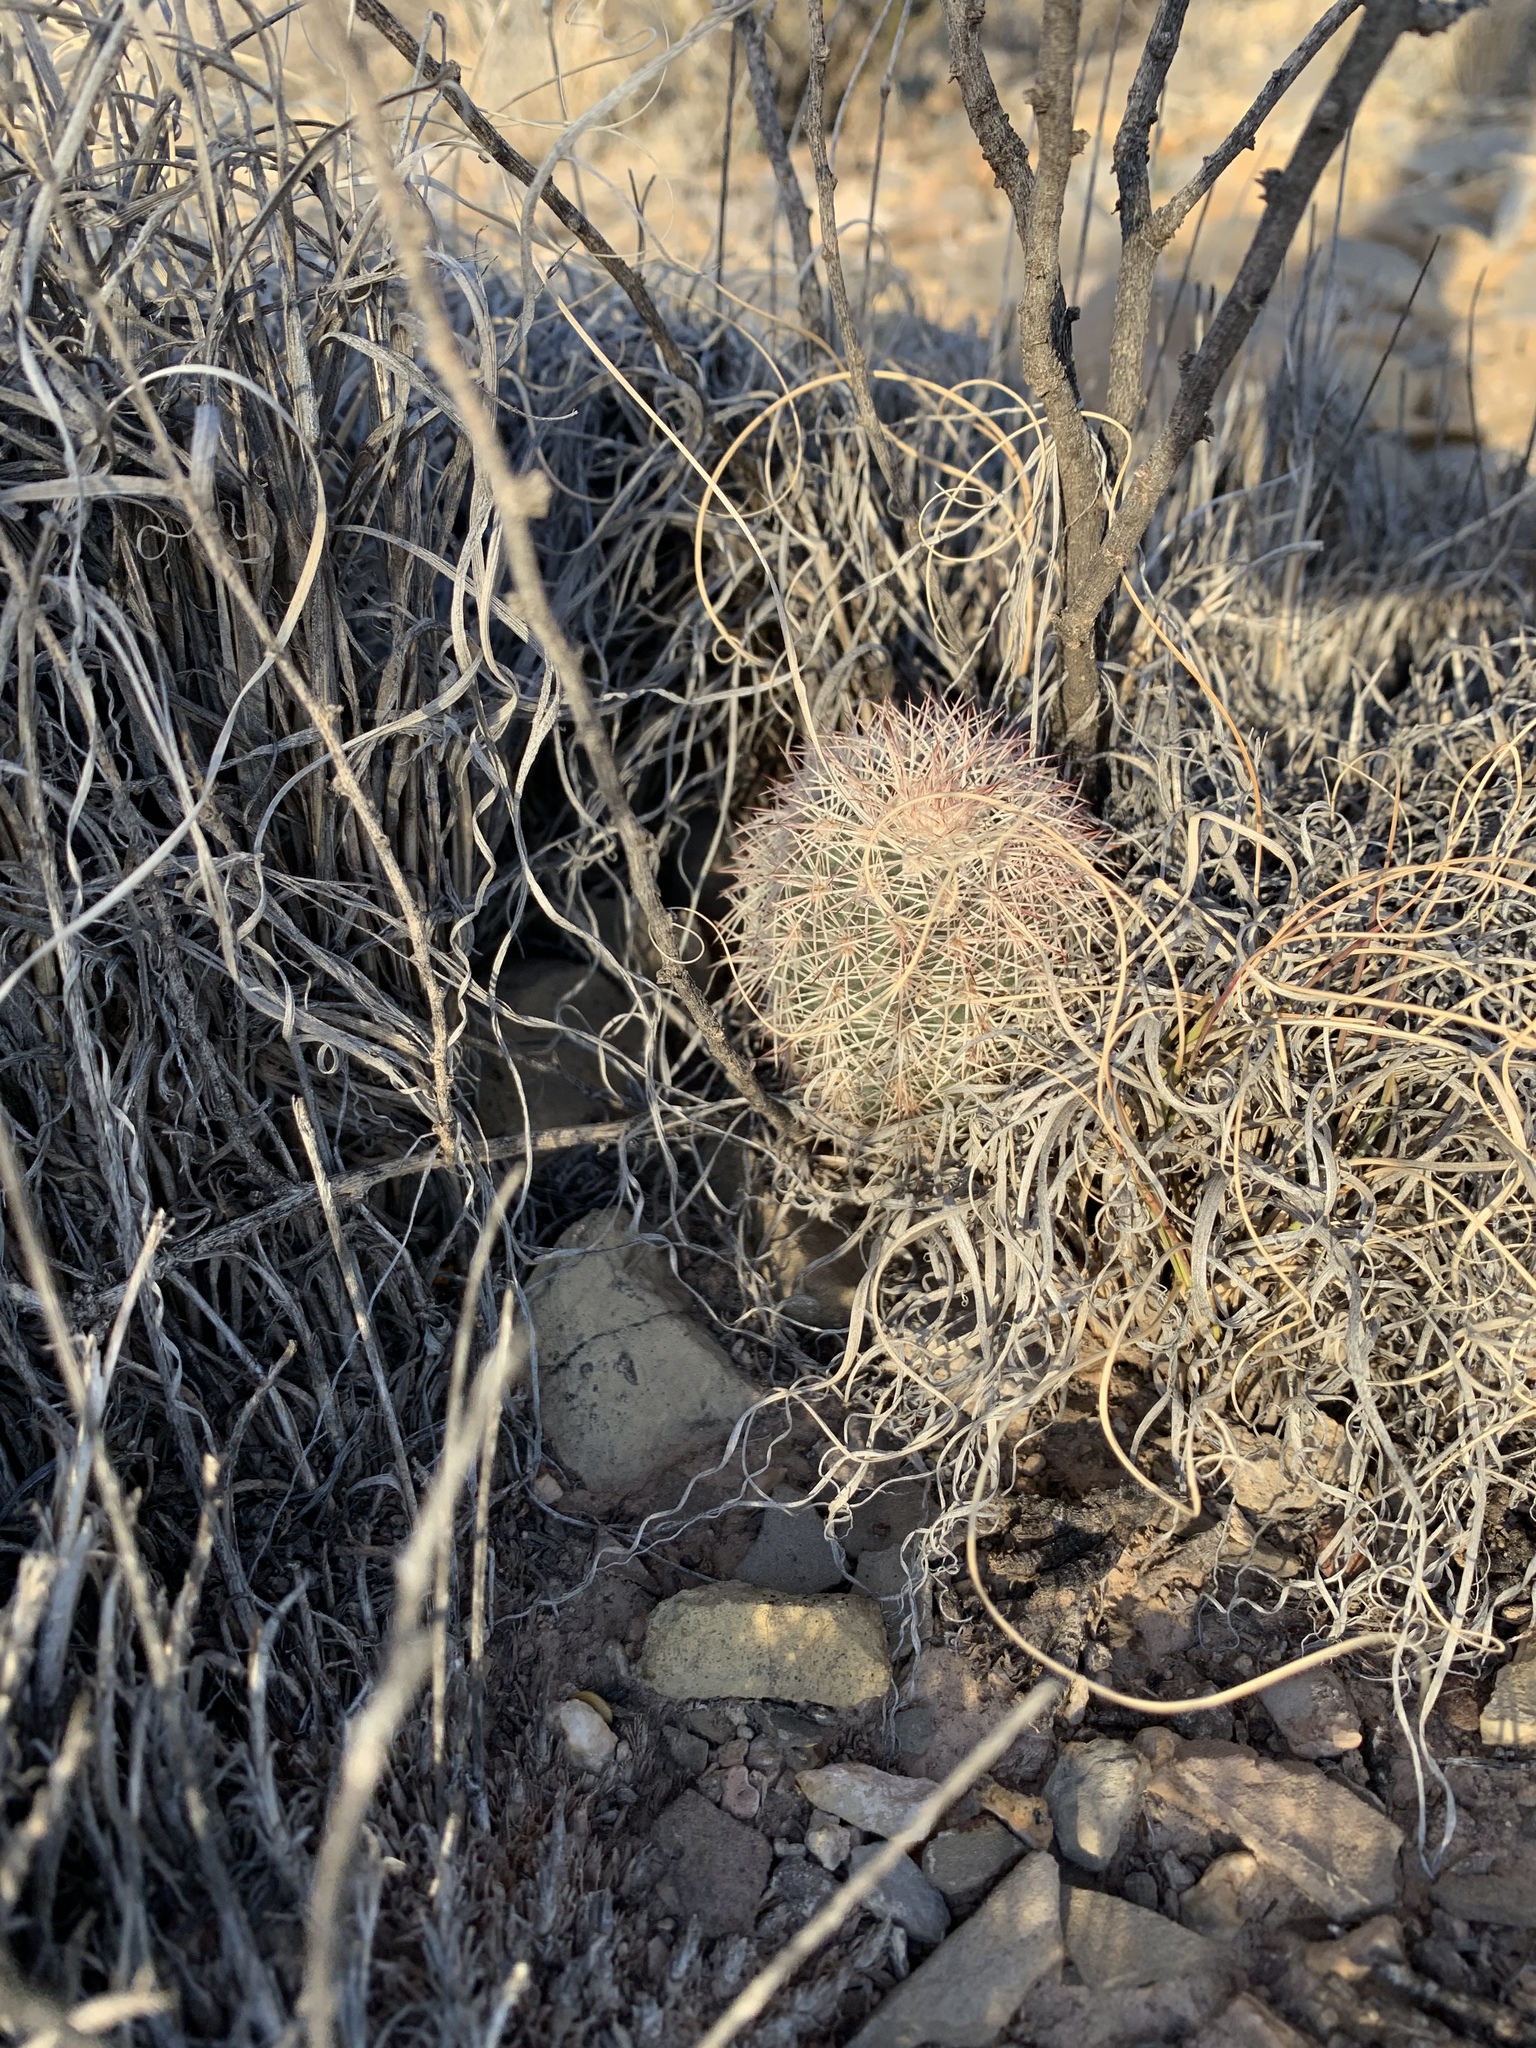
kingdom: Plantae
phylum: Tracheophyta
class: Magnoliopsida
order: Caryophyllales
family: Cactaceae
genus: Echinocereus
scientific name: Echinocereus dasyacanthus
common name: Spiny hedgehog cactus
